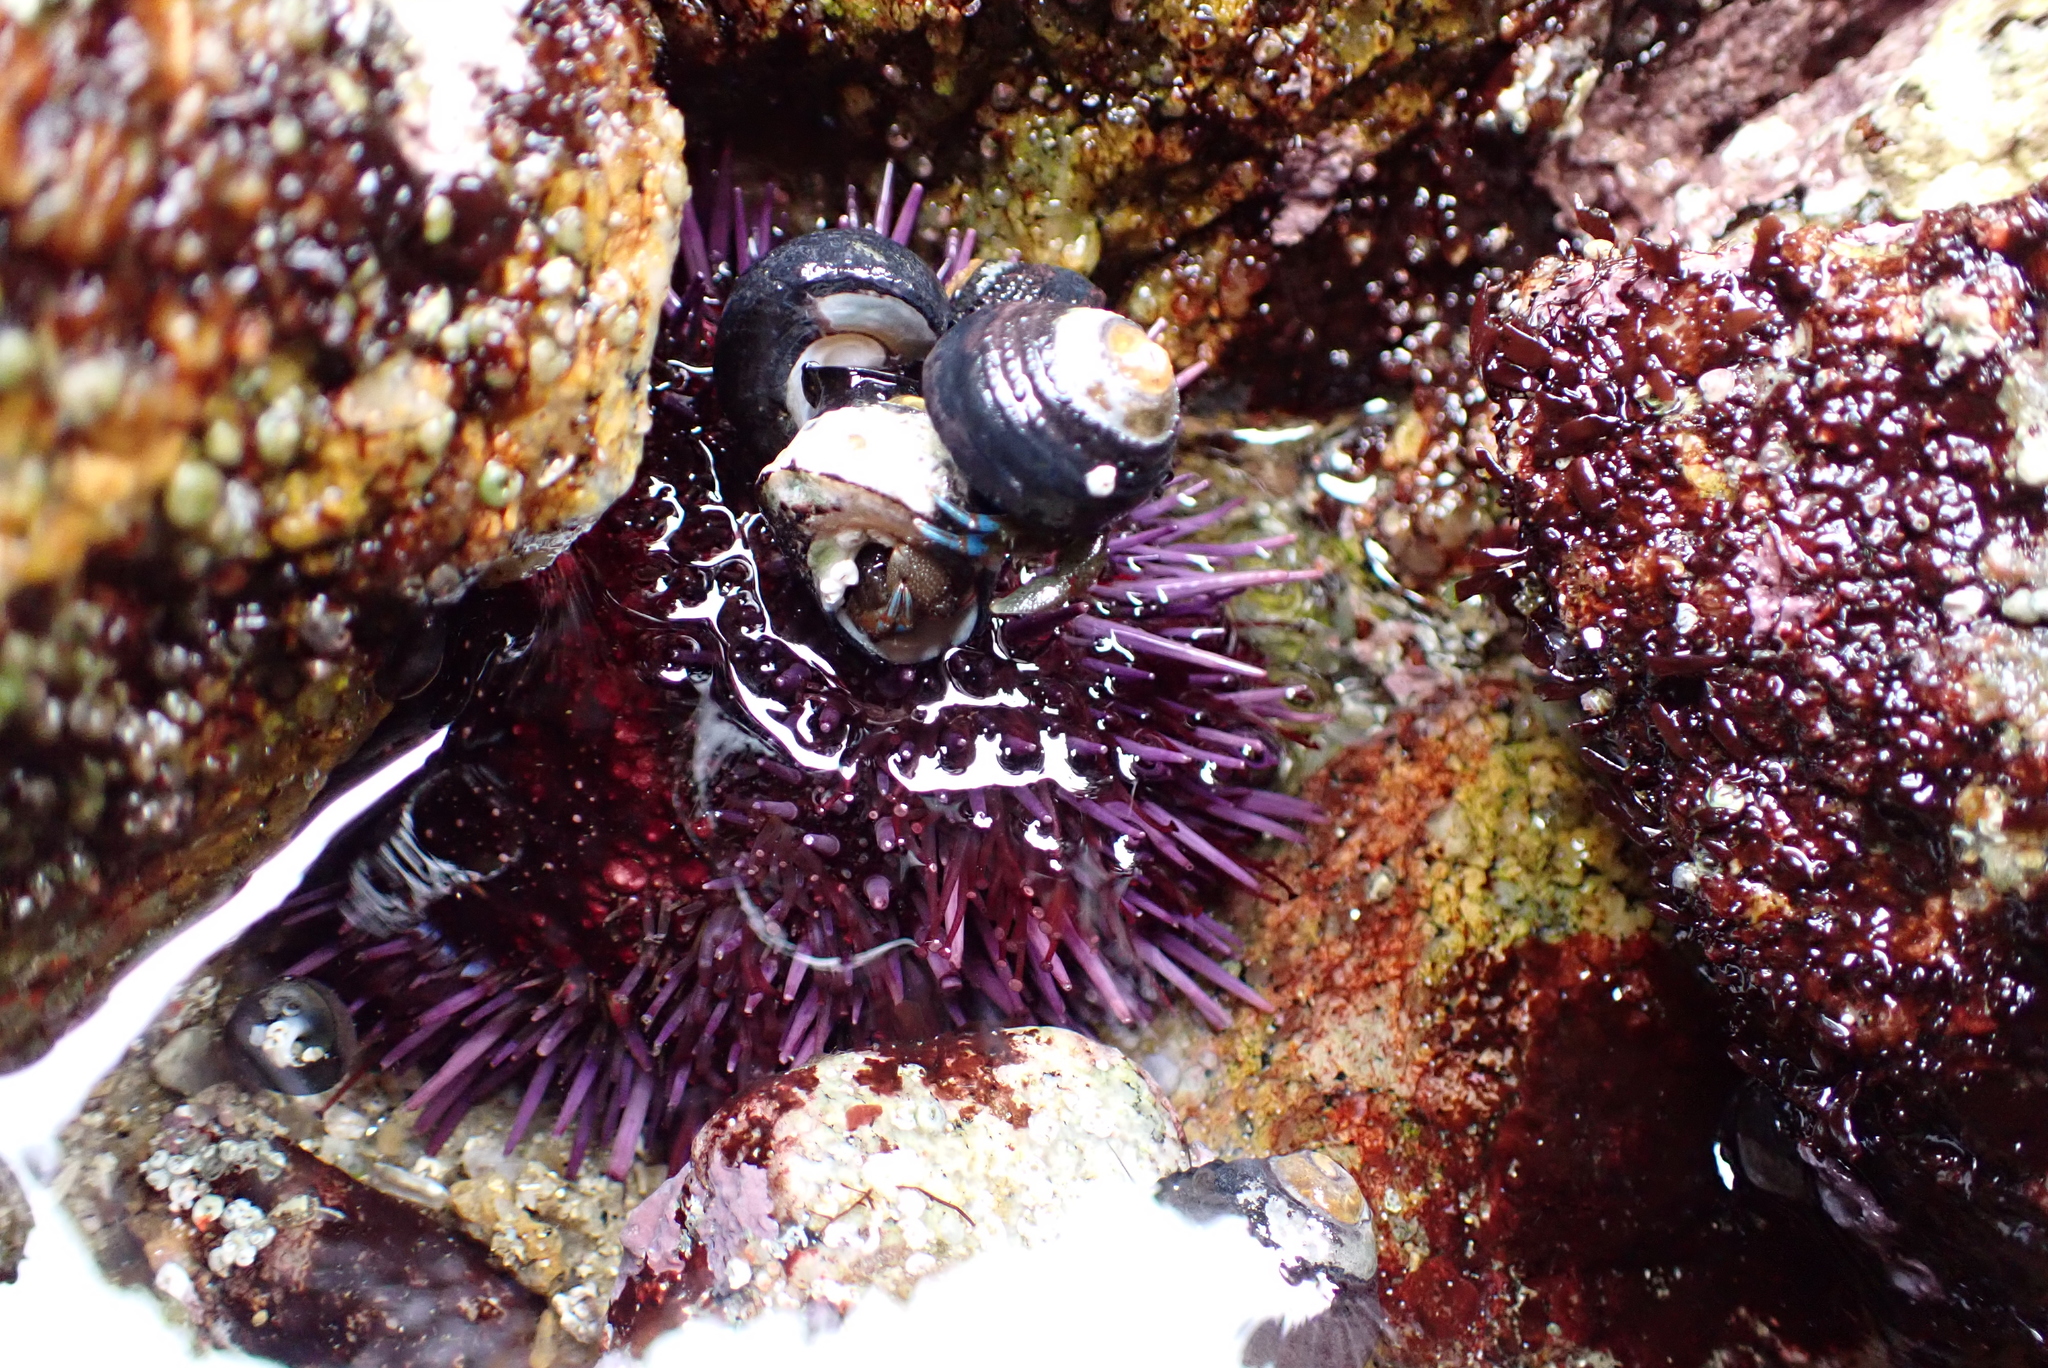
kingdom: Animalia
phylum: Echinodermata
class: Echinoidea
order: Camarodonta
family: Strongylocentrotidae
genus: Strongylocentrotus
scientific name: Strongylocentrotus purpuratus
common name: Purple sea urchin
